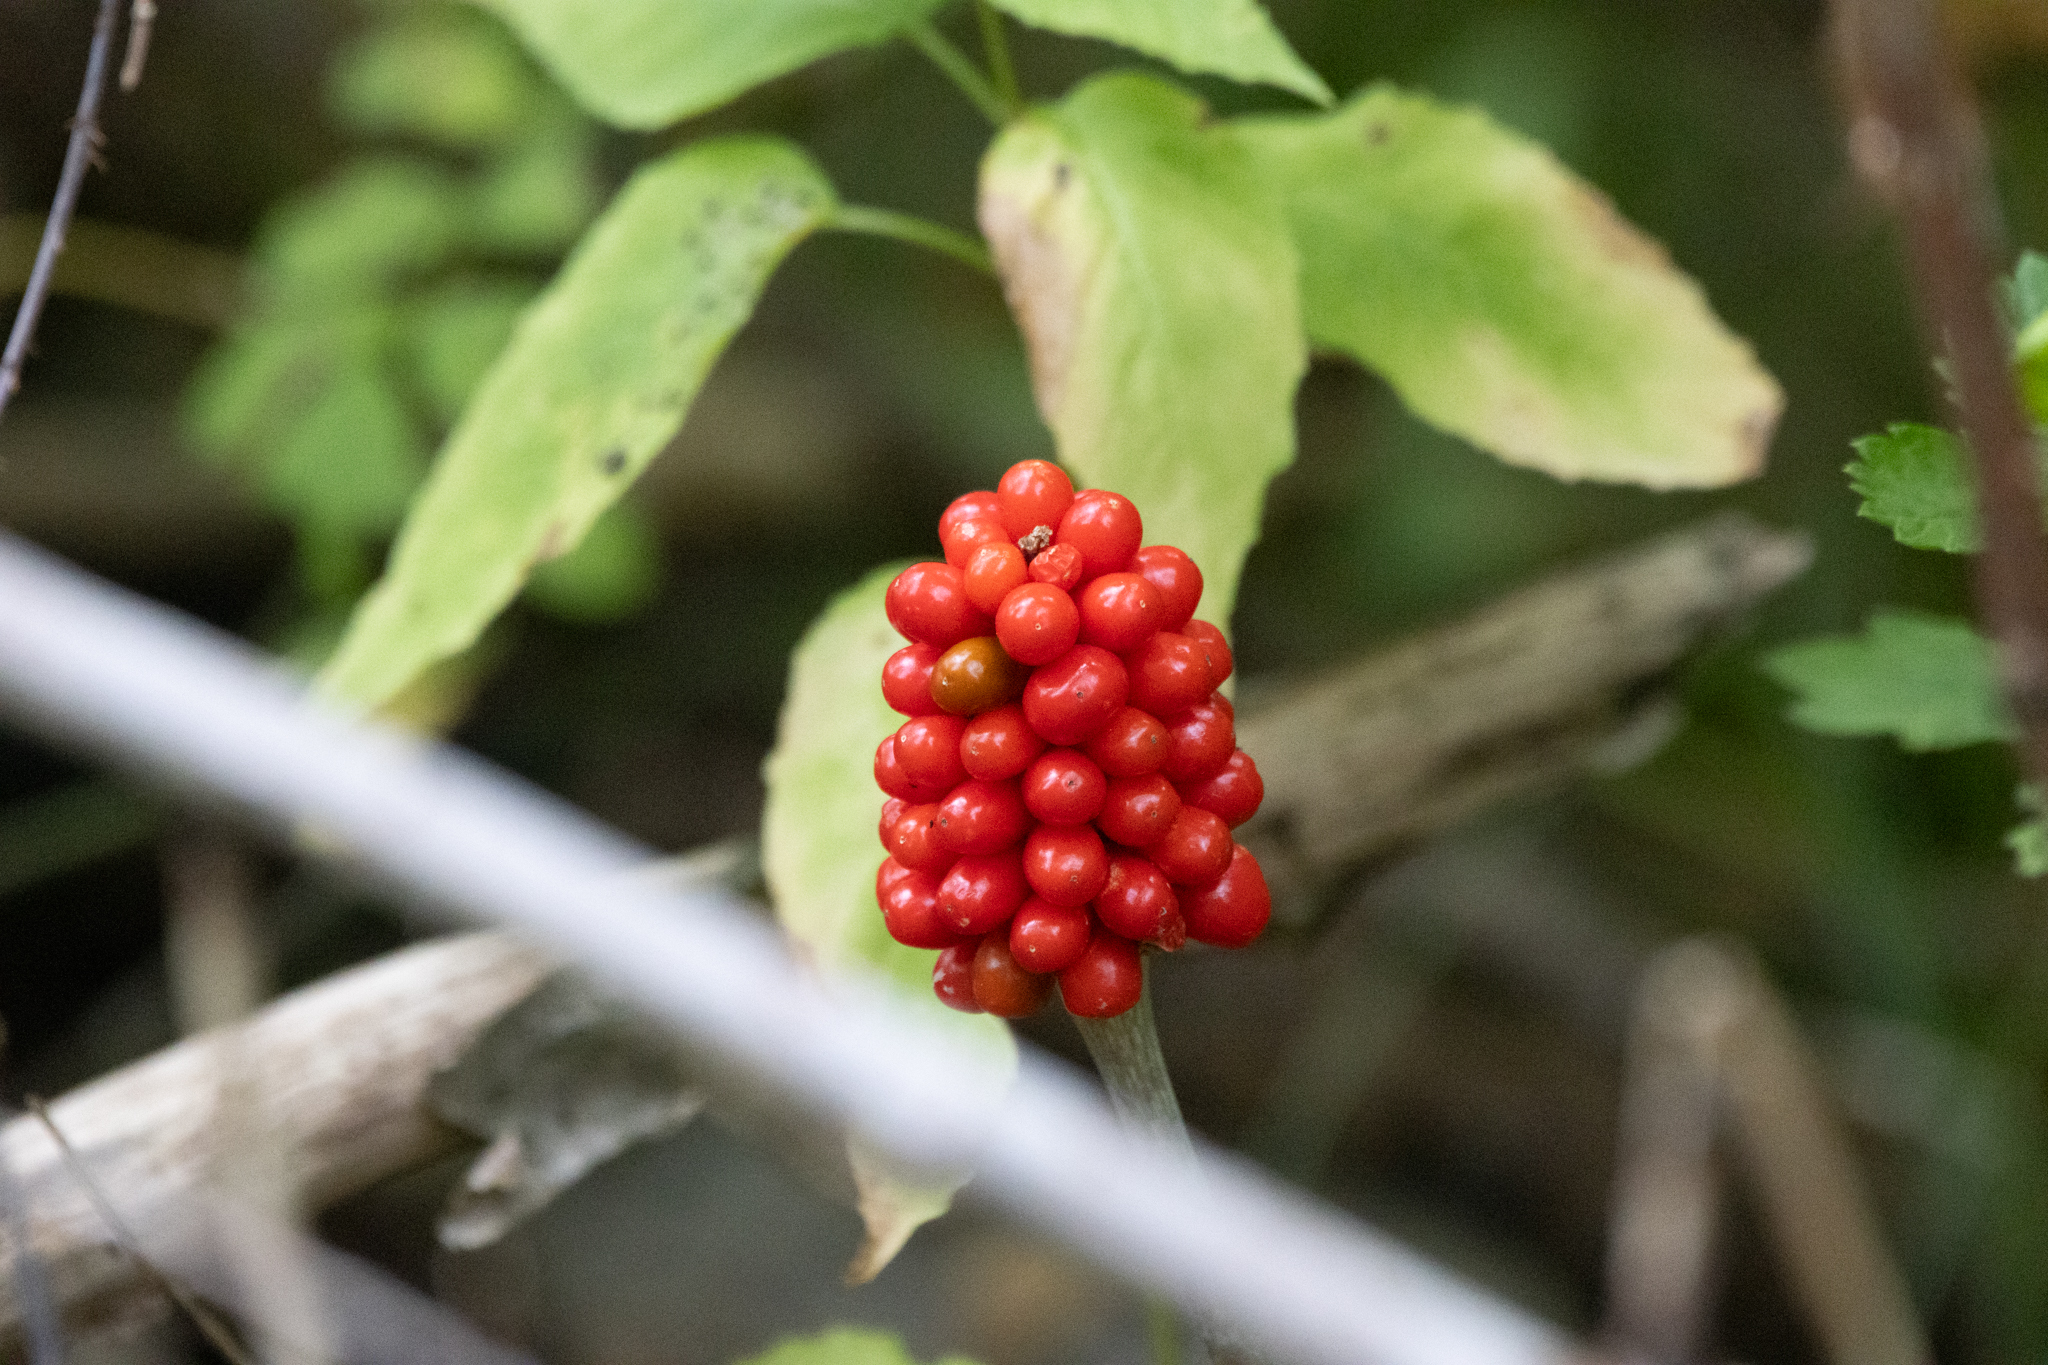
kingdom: Plantae
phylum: Tracheophyta
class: Liliopsida
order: Alismatales
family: Araceae
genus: Arisaema
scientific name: Arisaema triphyllum
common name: Jack-in-the-pulpit
